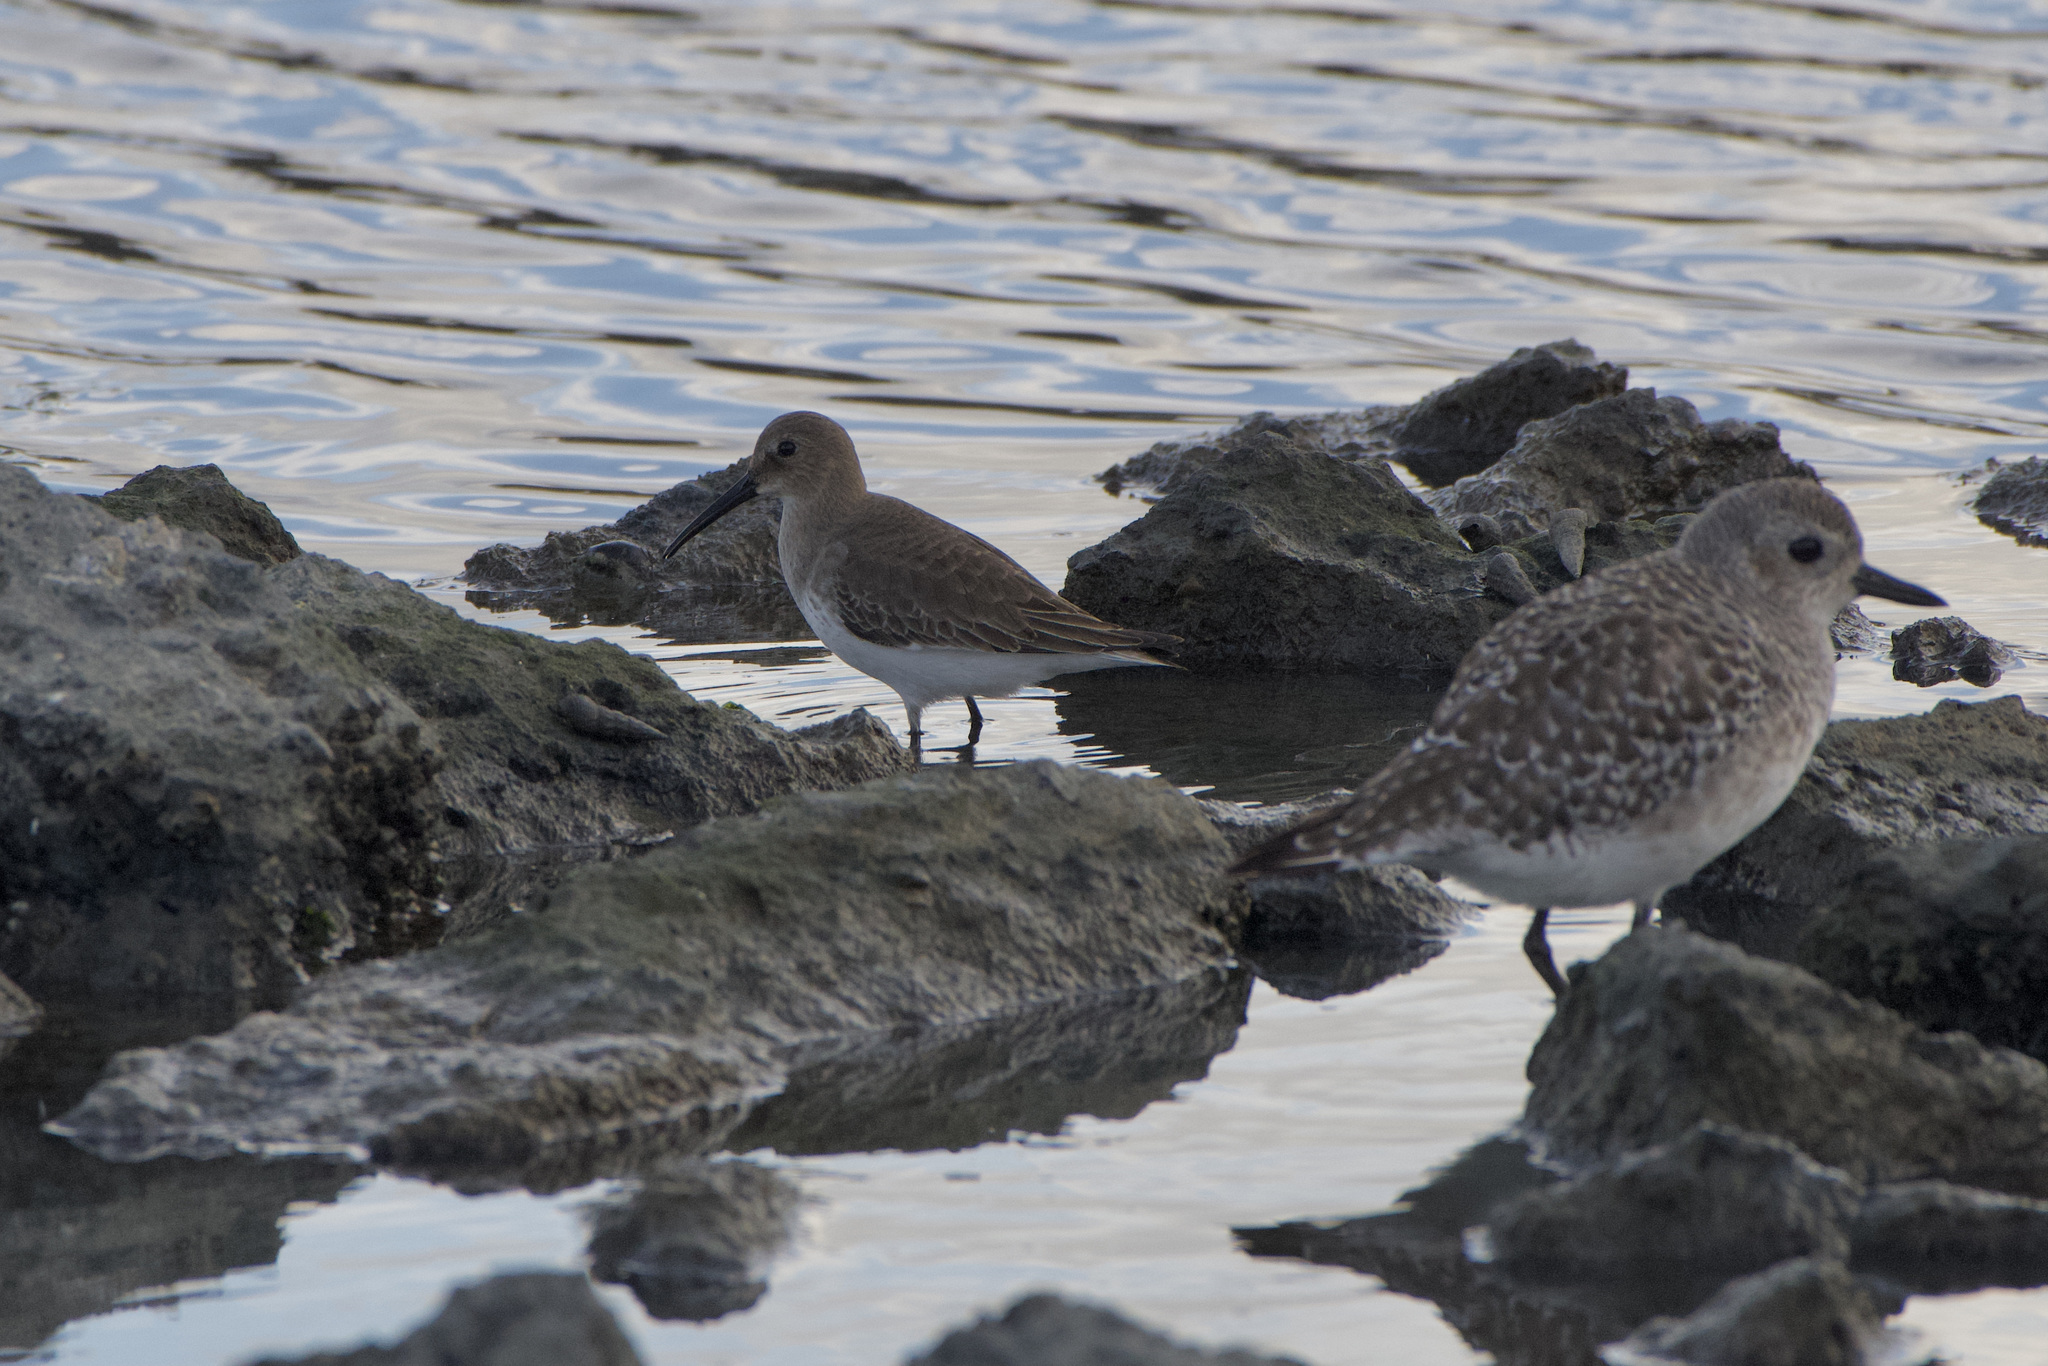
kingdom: Animalia
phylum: Chordata
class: Aves
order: Charadriiformes
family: Scolopacidae
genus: Calidris
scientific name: Calidris alpina
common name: Dunlin
